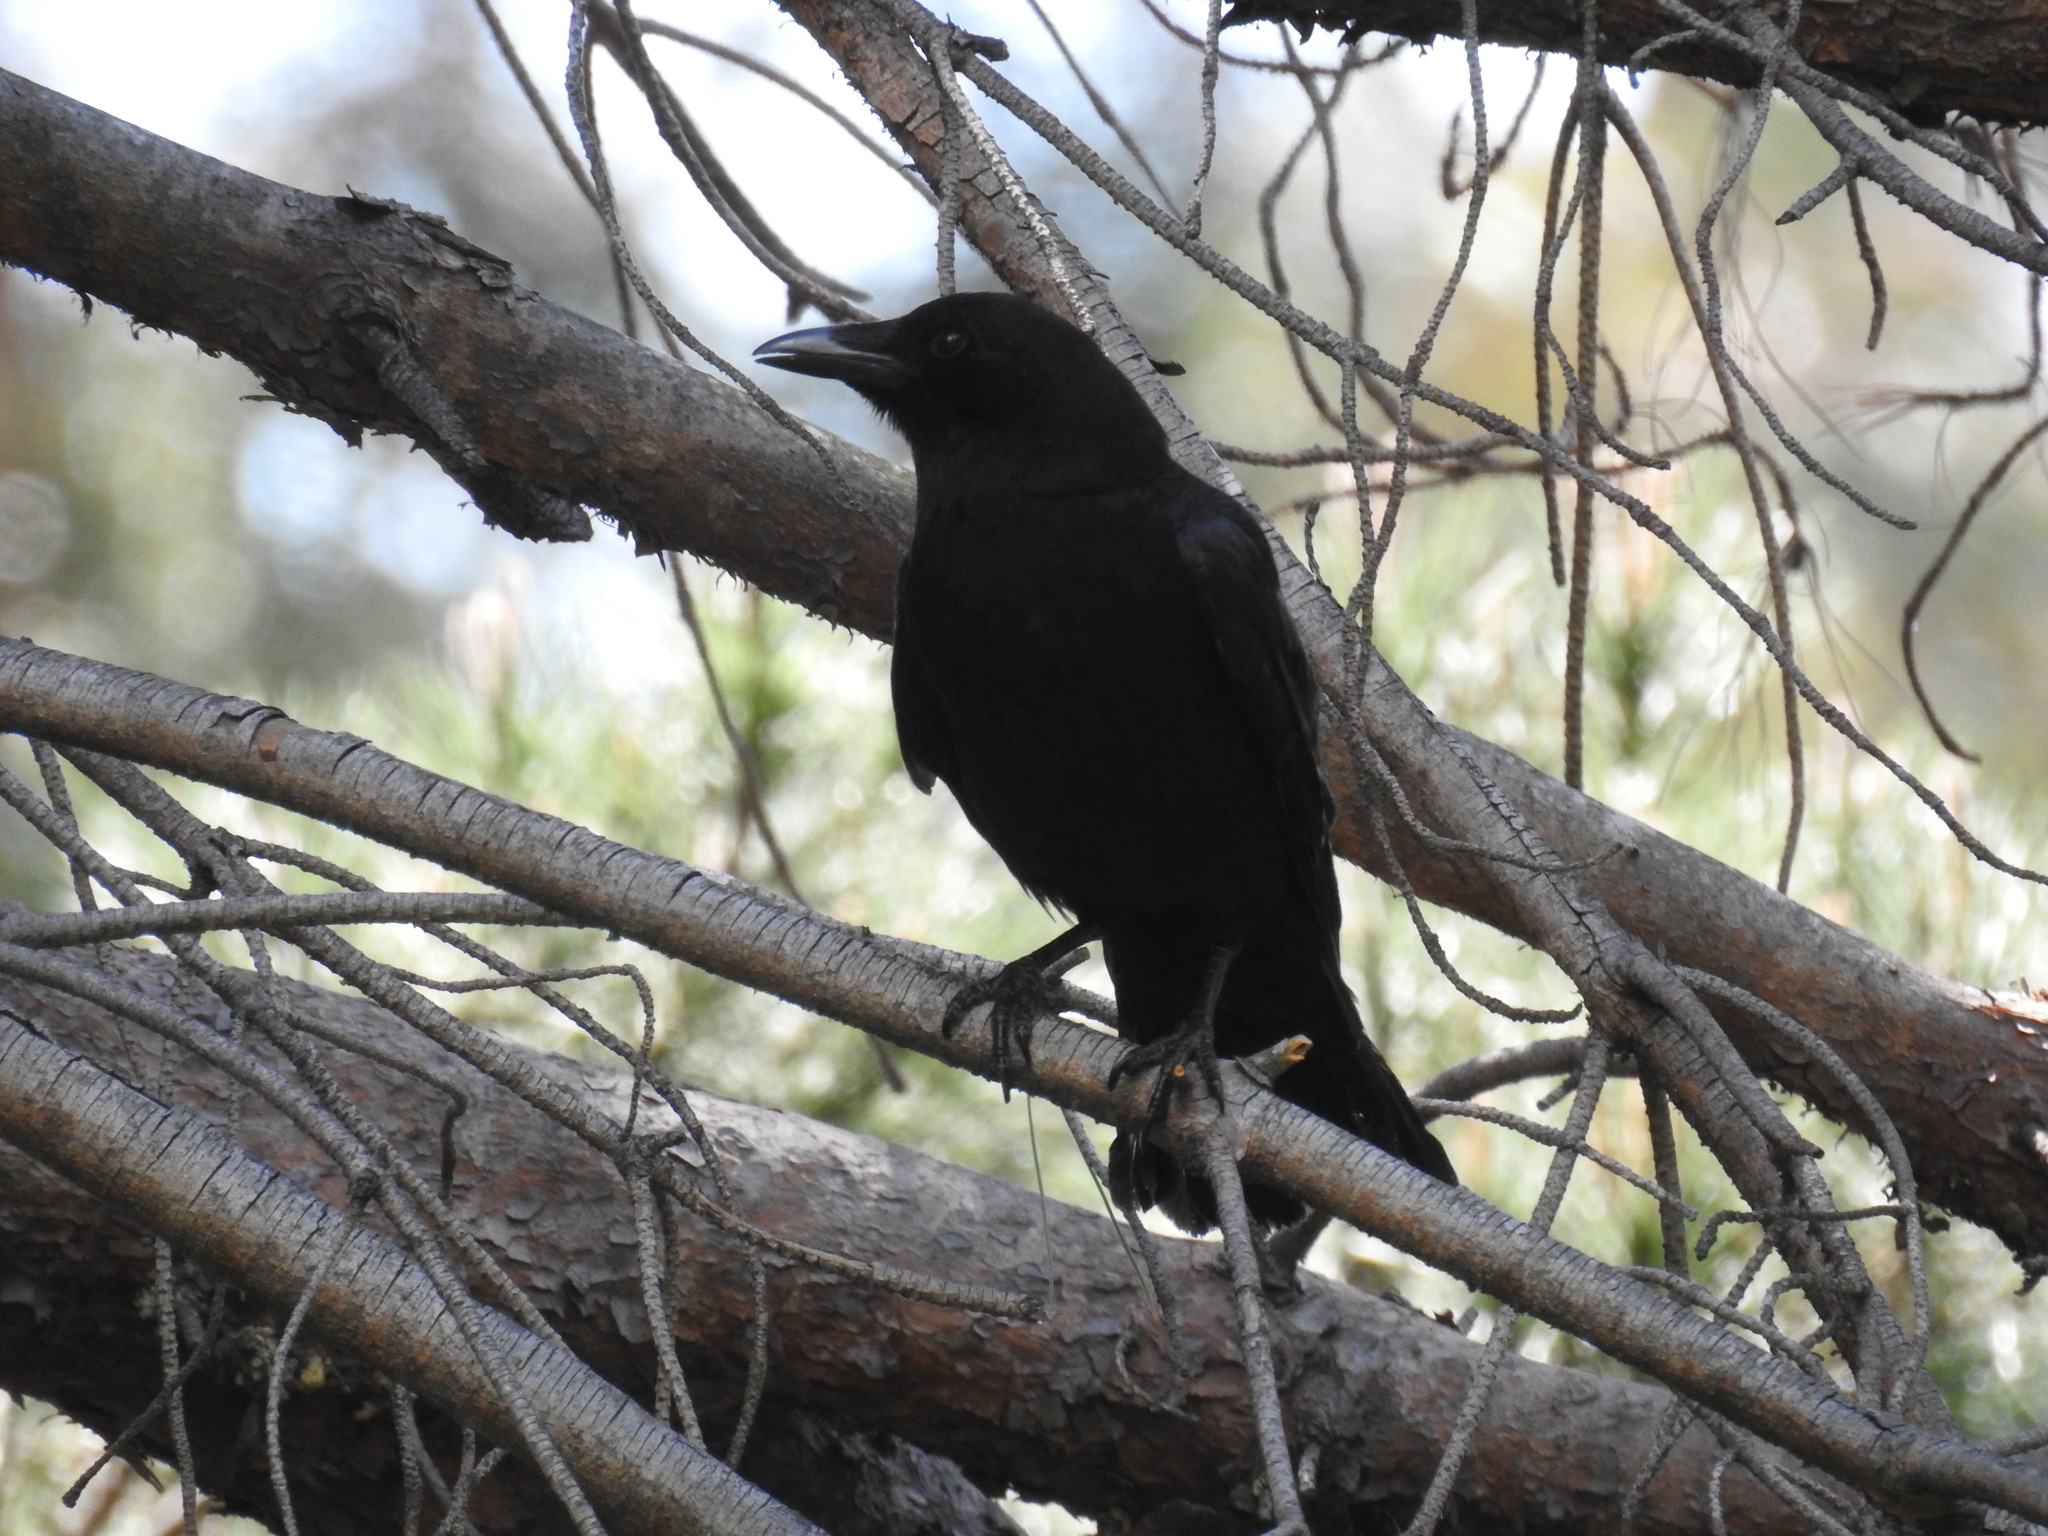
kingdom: Animalia
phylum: Chordata
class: Aves
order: Passeriformes
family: Corvidae
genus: Corvus
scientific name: Corvus brachyrhynchos
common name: American crow
